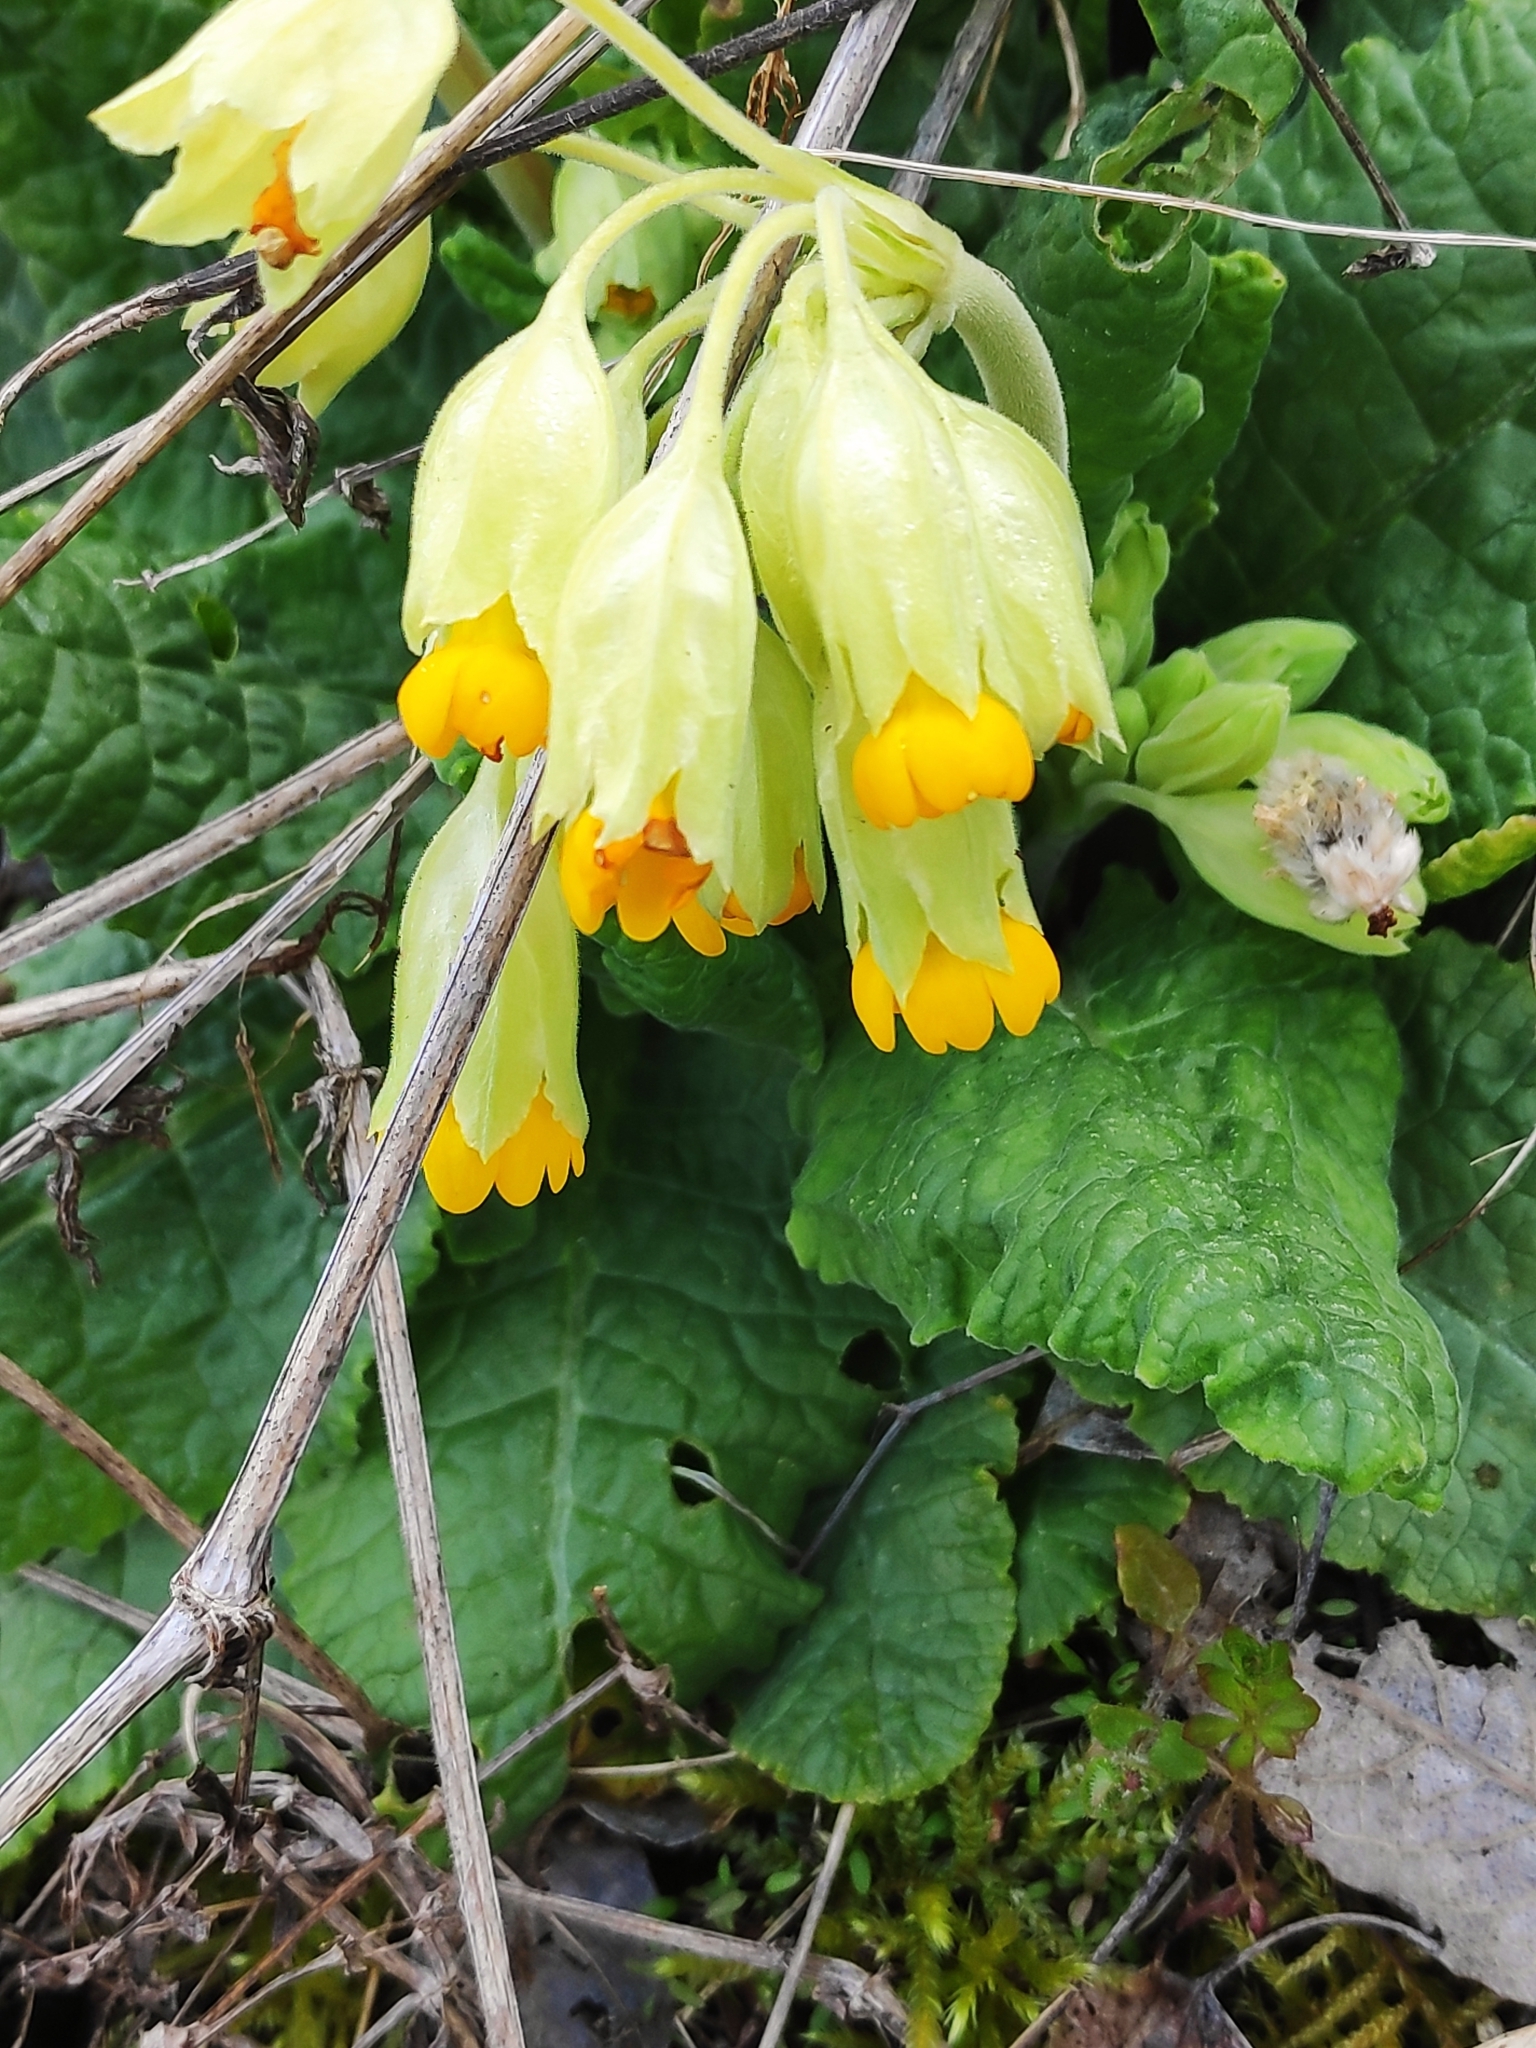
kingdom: Plantae
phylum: Tracheophyta
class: Magnoliopsida
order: Ericales
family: Primulaceae
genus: Primula
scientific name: Primula veris
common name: Cowslip
